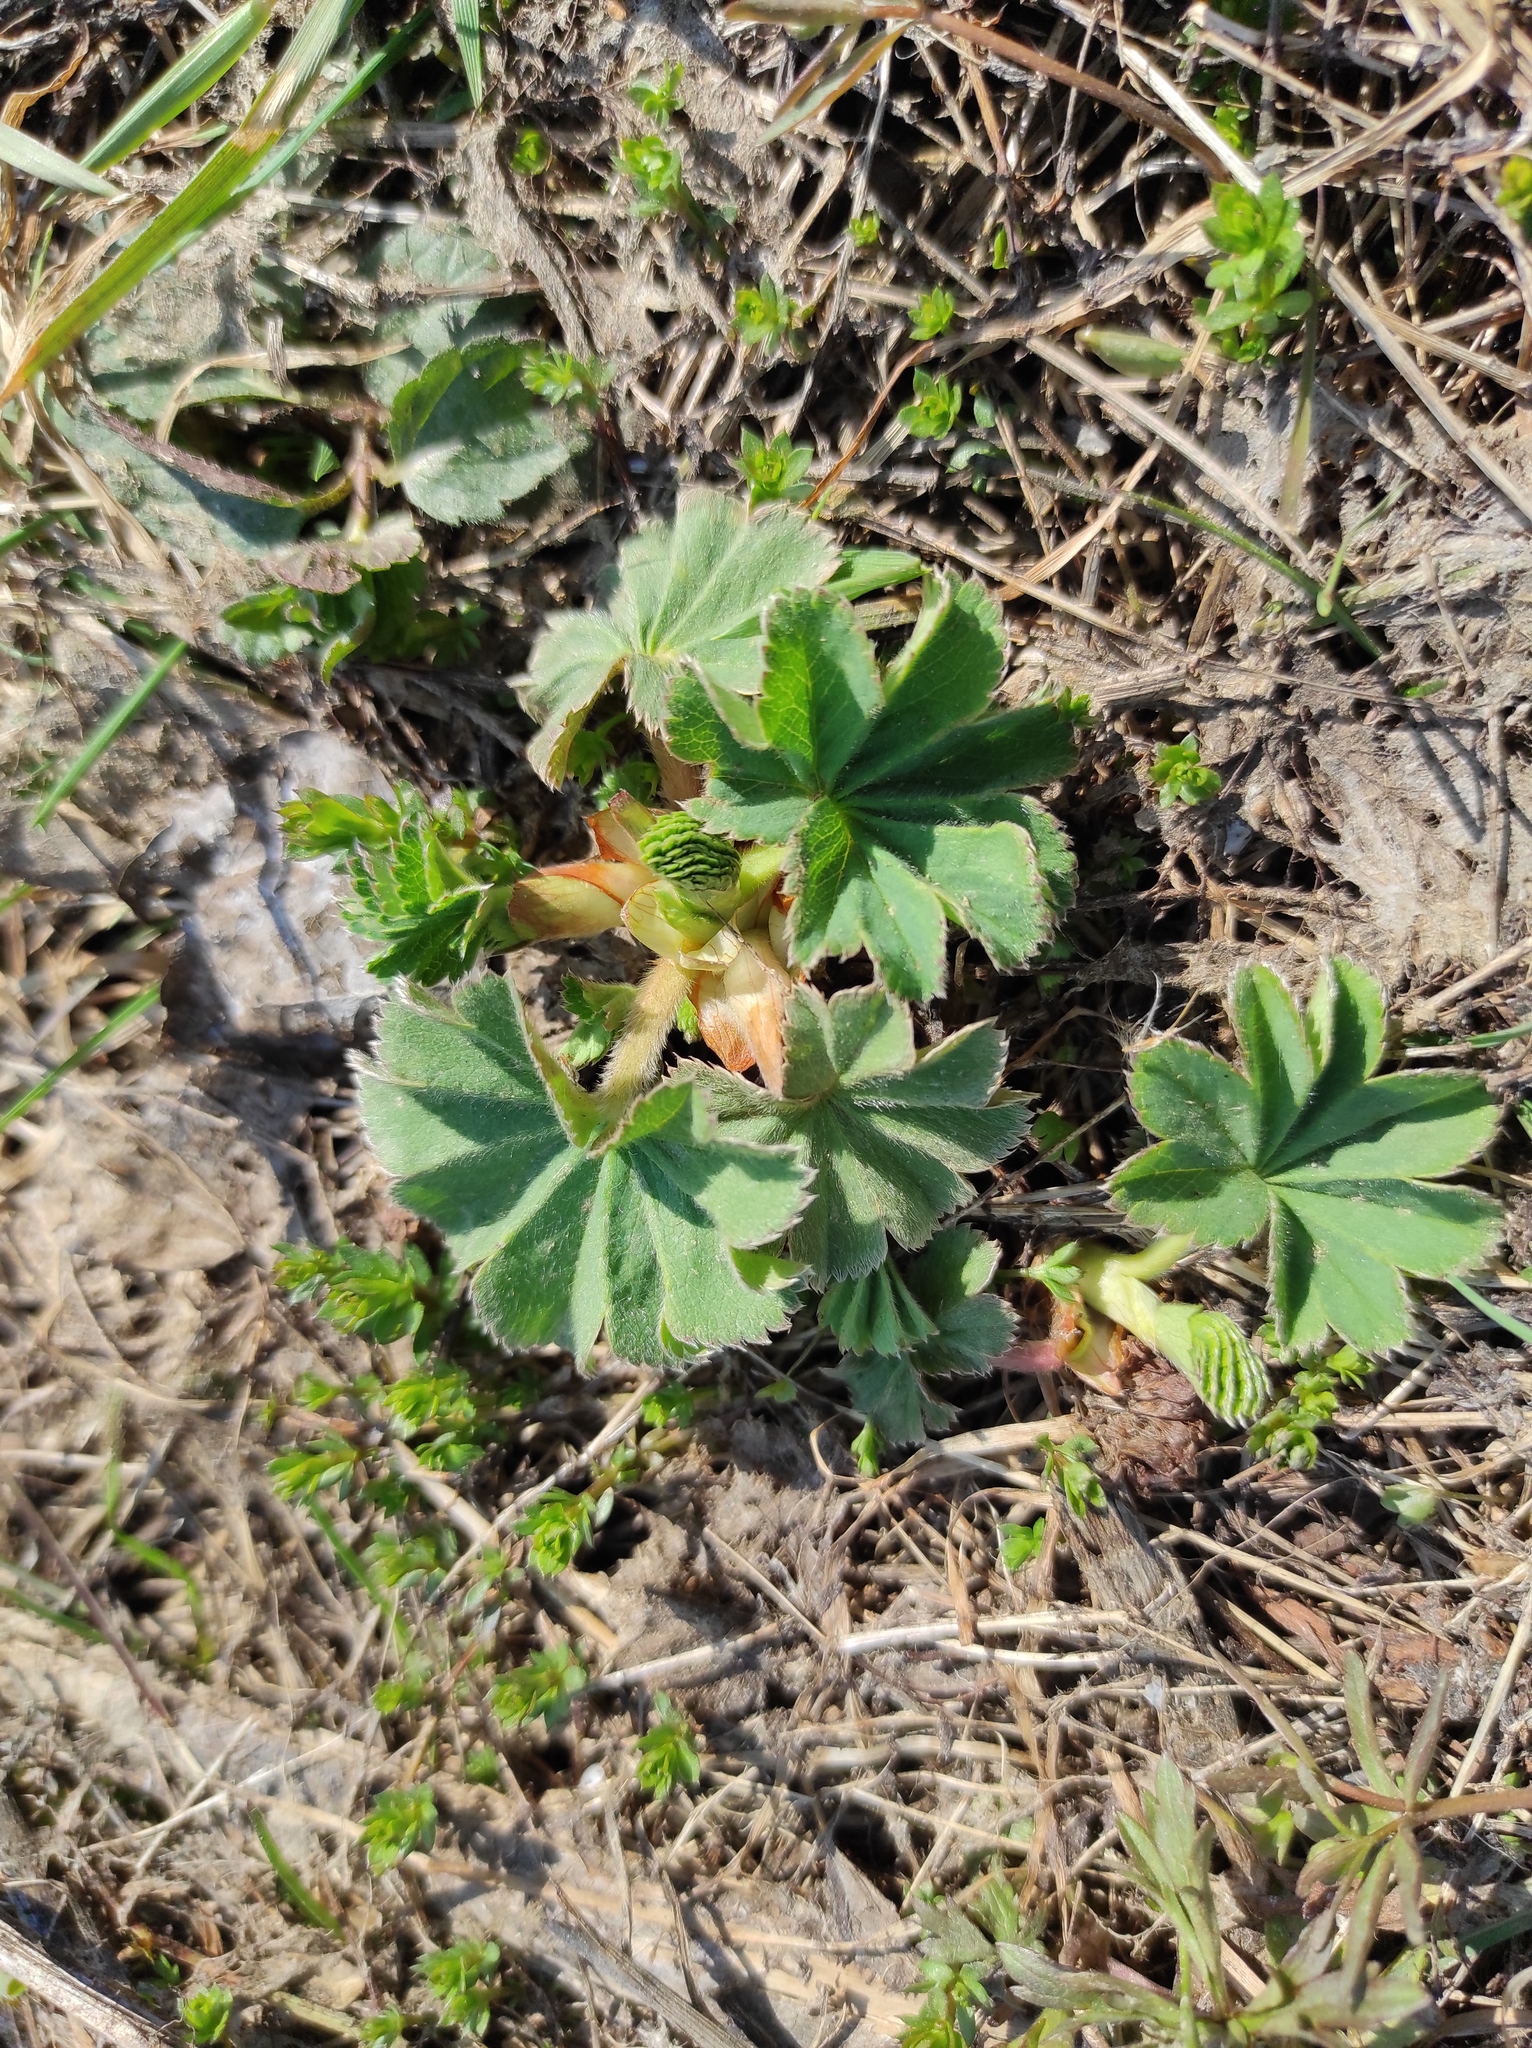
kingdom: Plantae
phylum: Tracheophyta
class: Magnoliopsida
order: Rosales
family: Rosaceae
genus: Alchemilla
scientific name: Alchemilla
